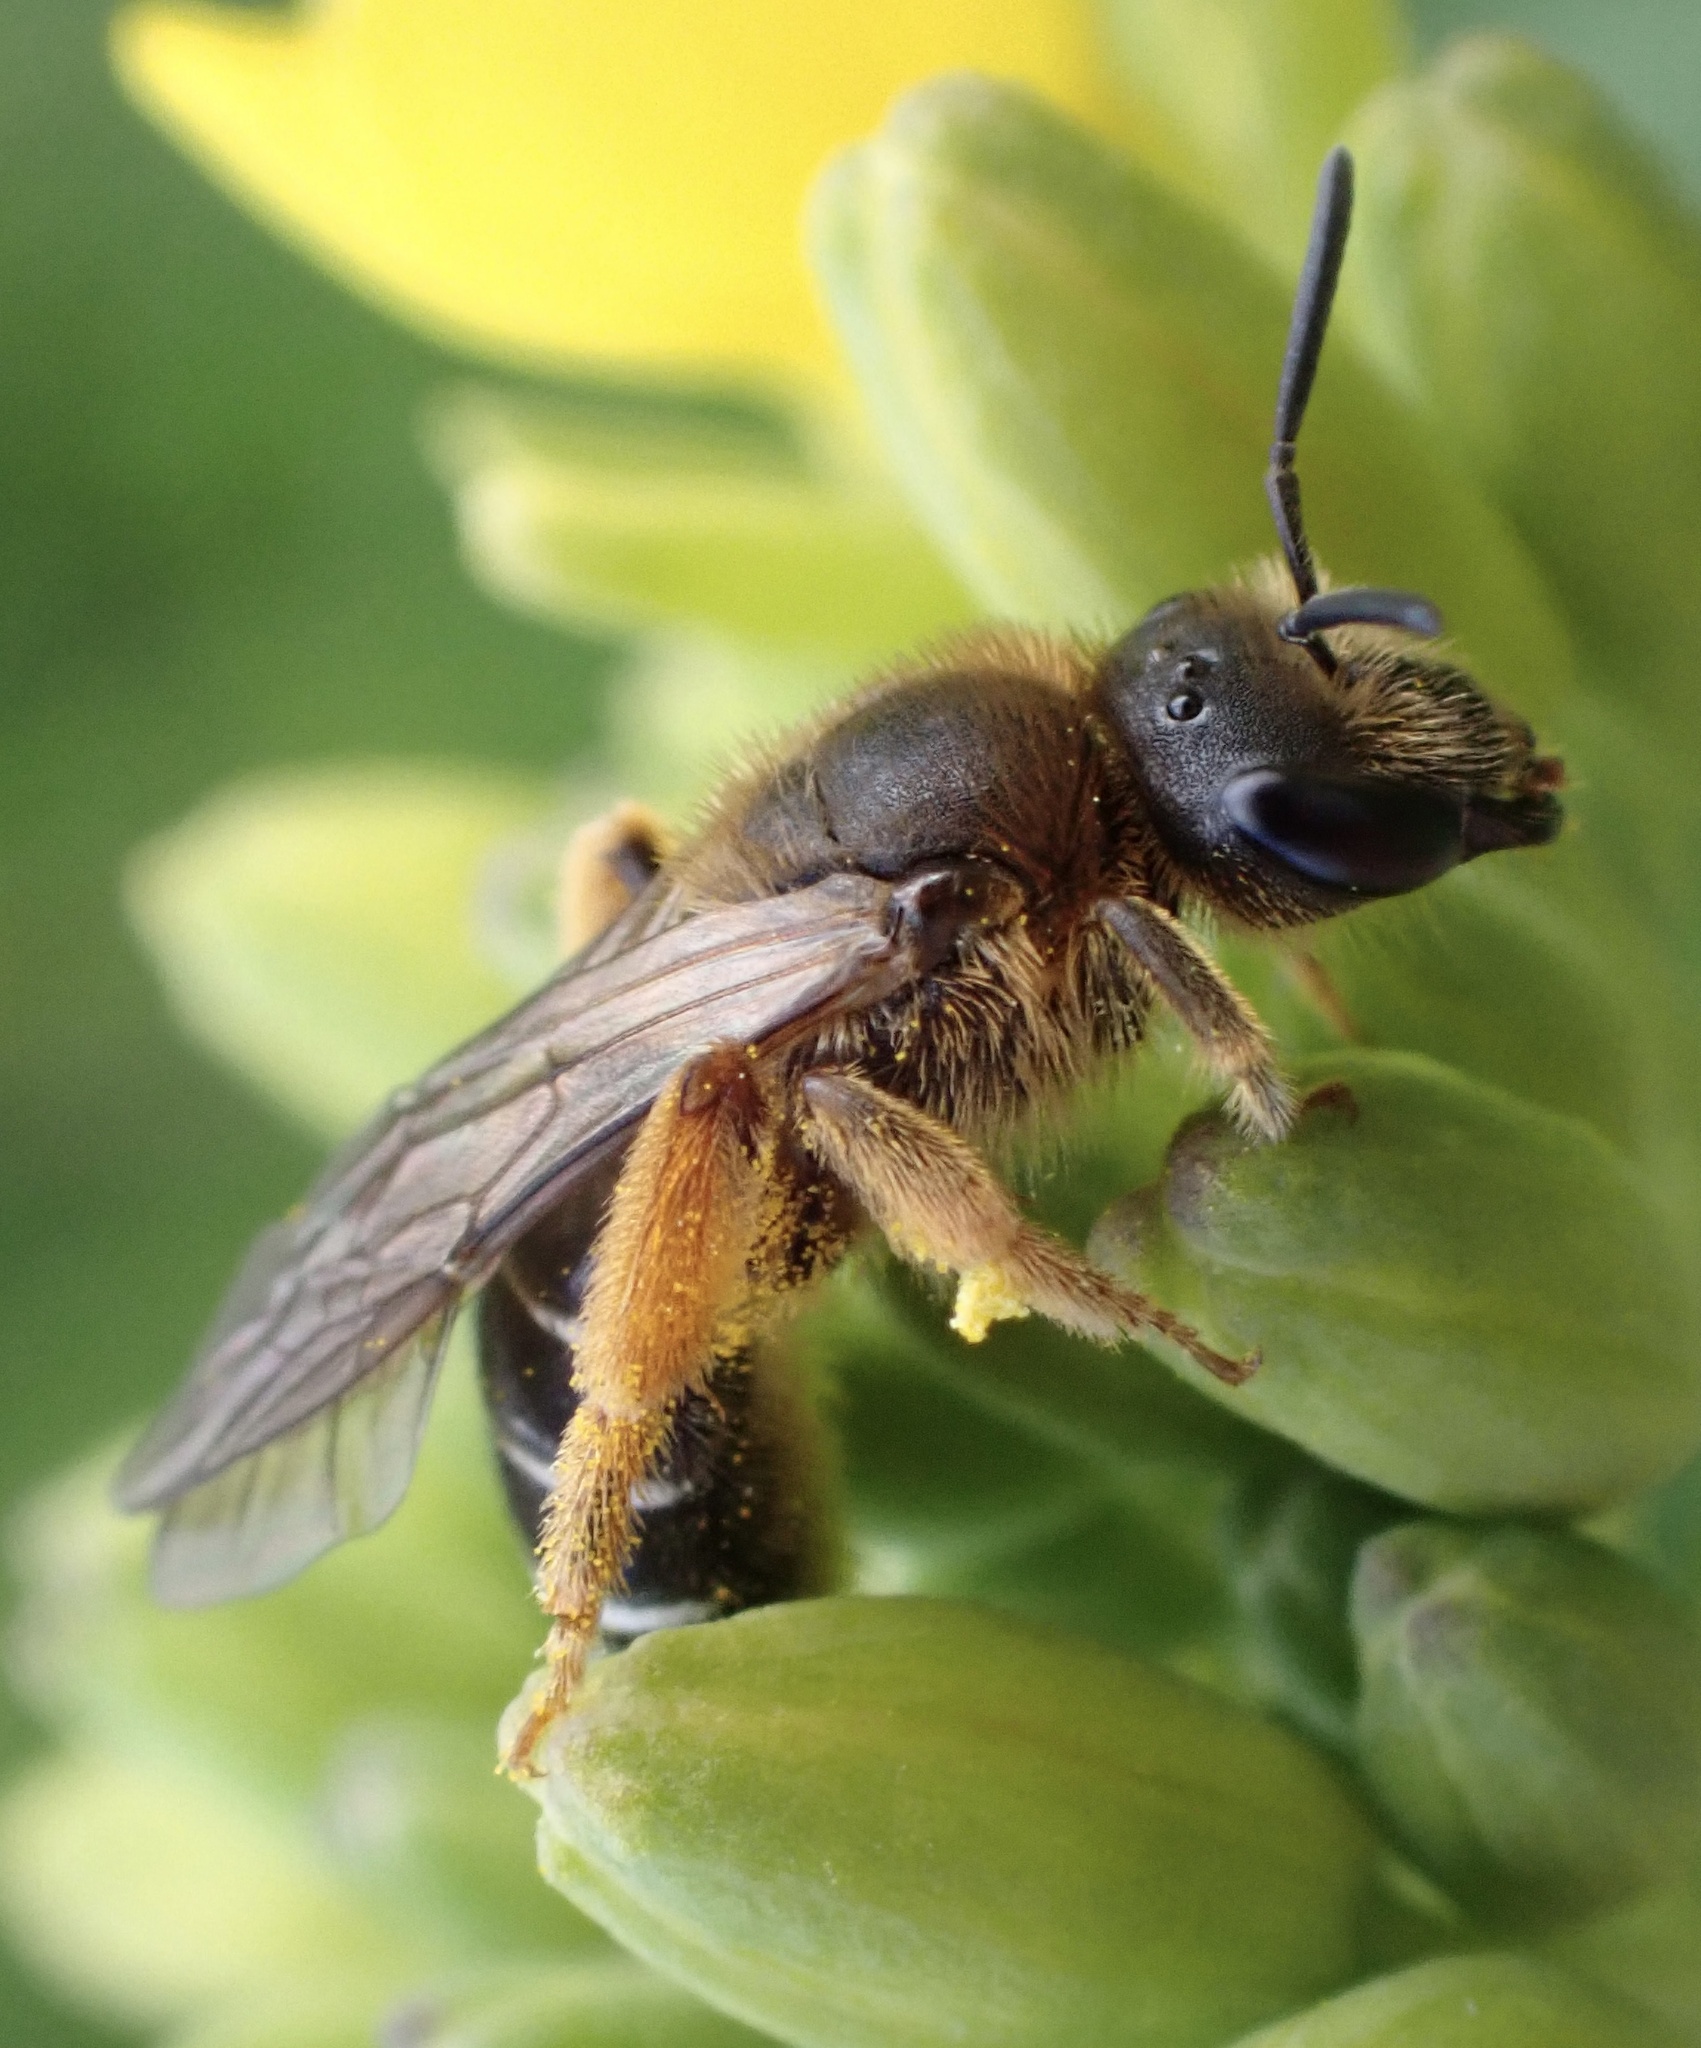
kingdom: Animalia
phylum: Arthropoda
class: Insecta
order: Hymenoptera
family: Halictidae
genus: Halictus
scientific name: Halictus rubicundus
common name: Orange-legged furrow bee
